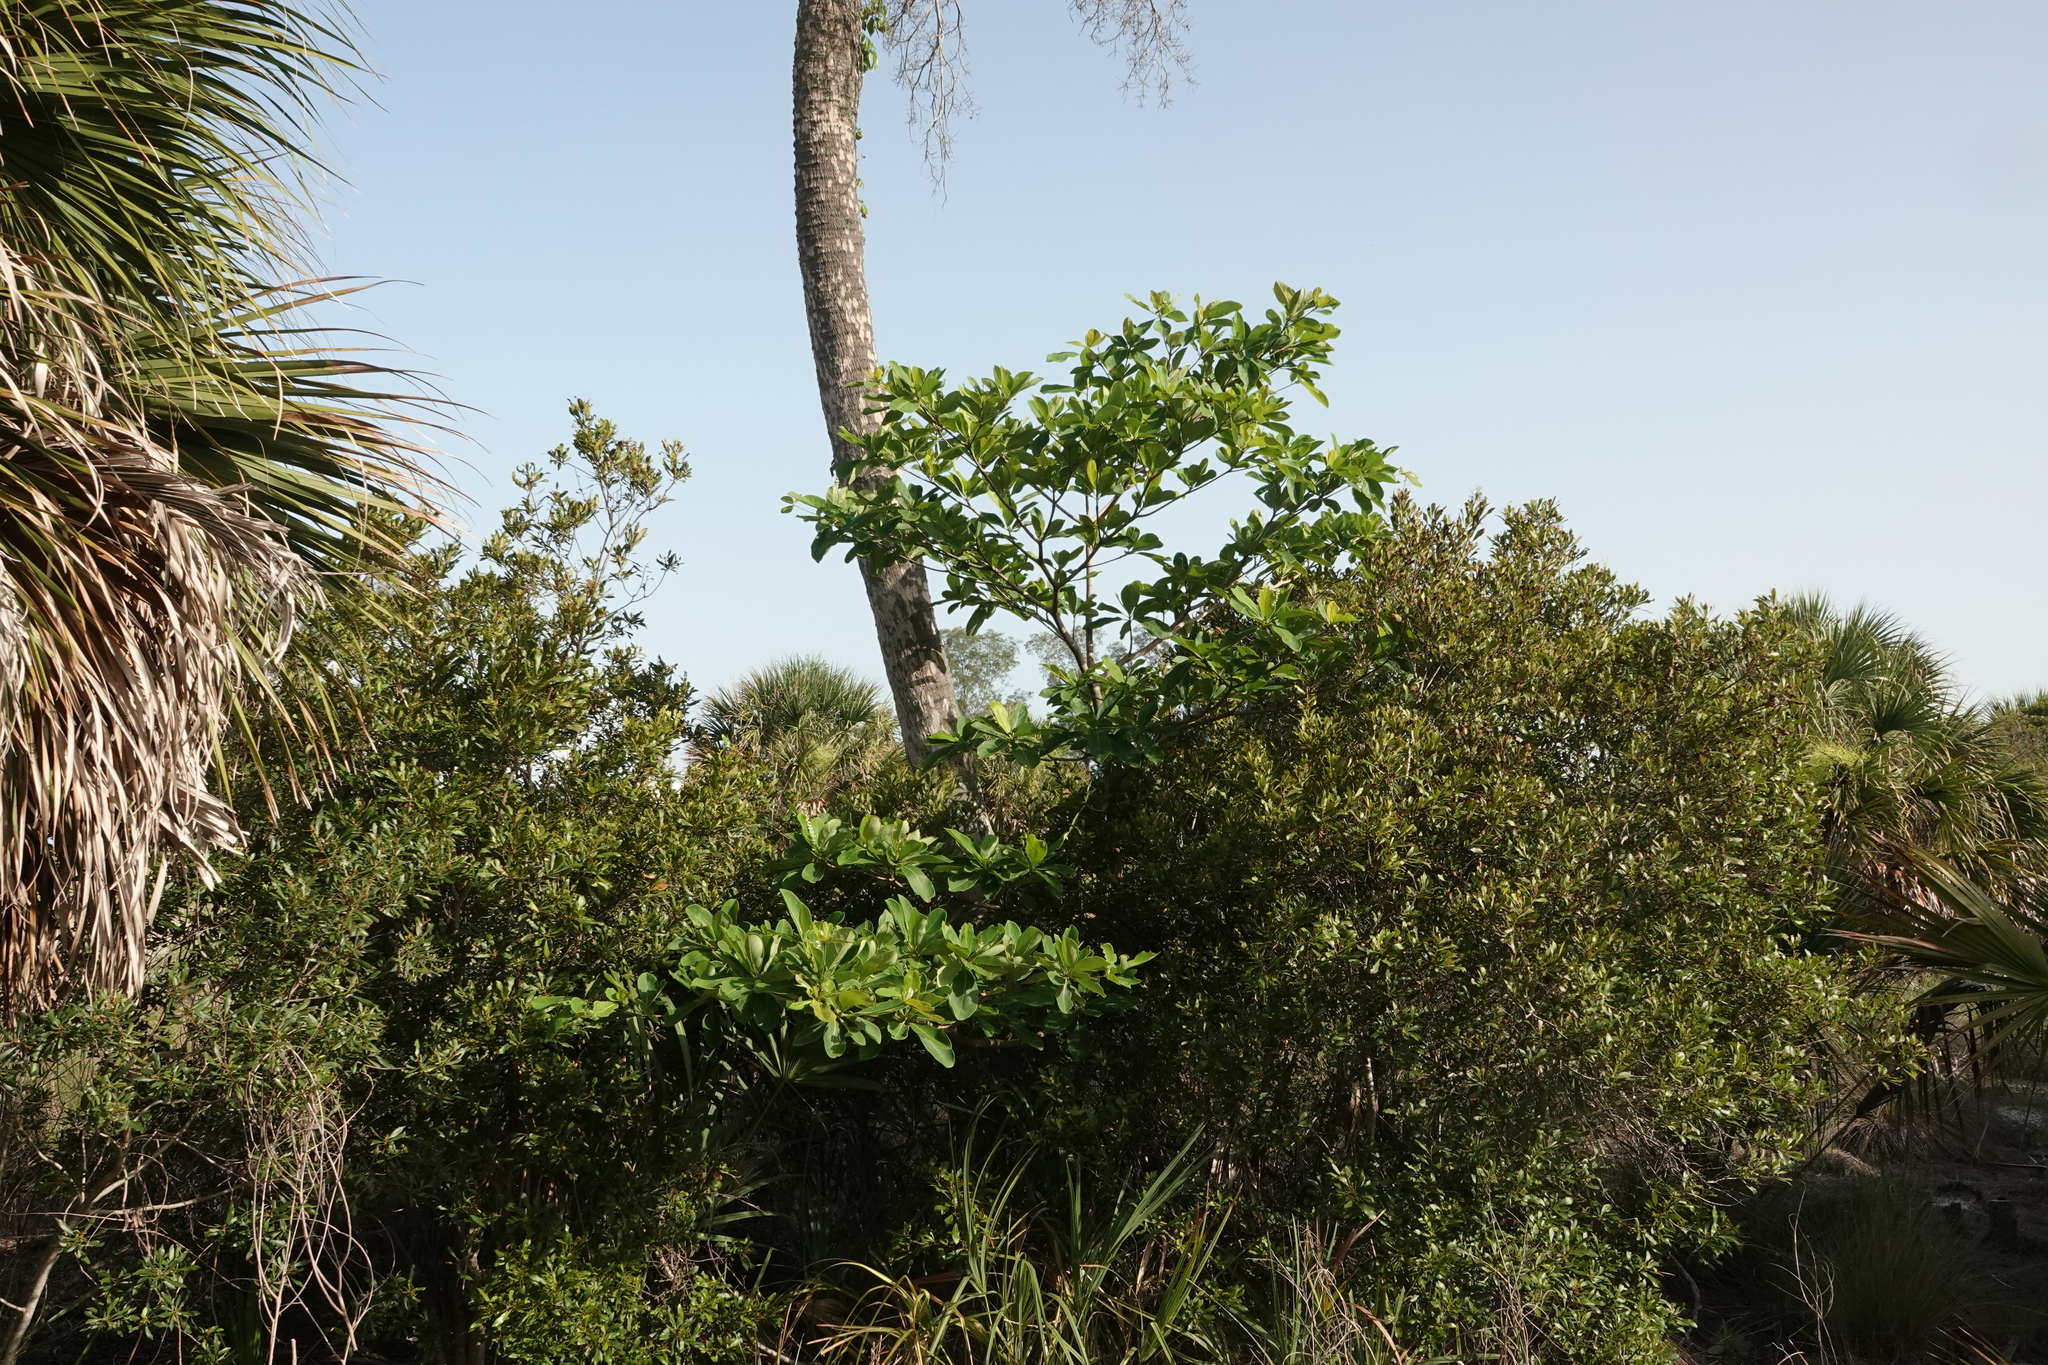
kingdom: Plantae
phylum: Tracheophyta
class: Magnoliopsida
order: Myrtales
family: Combretaceae
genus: Terminalia
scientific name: Terminalia muelleri
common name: Australian almond
